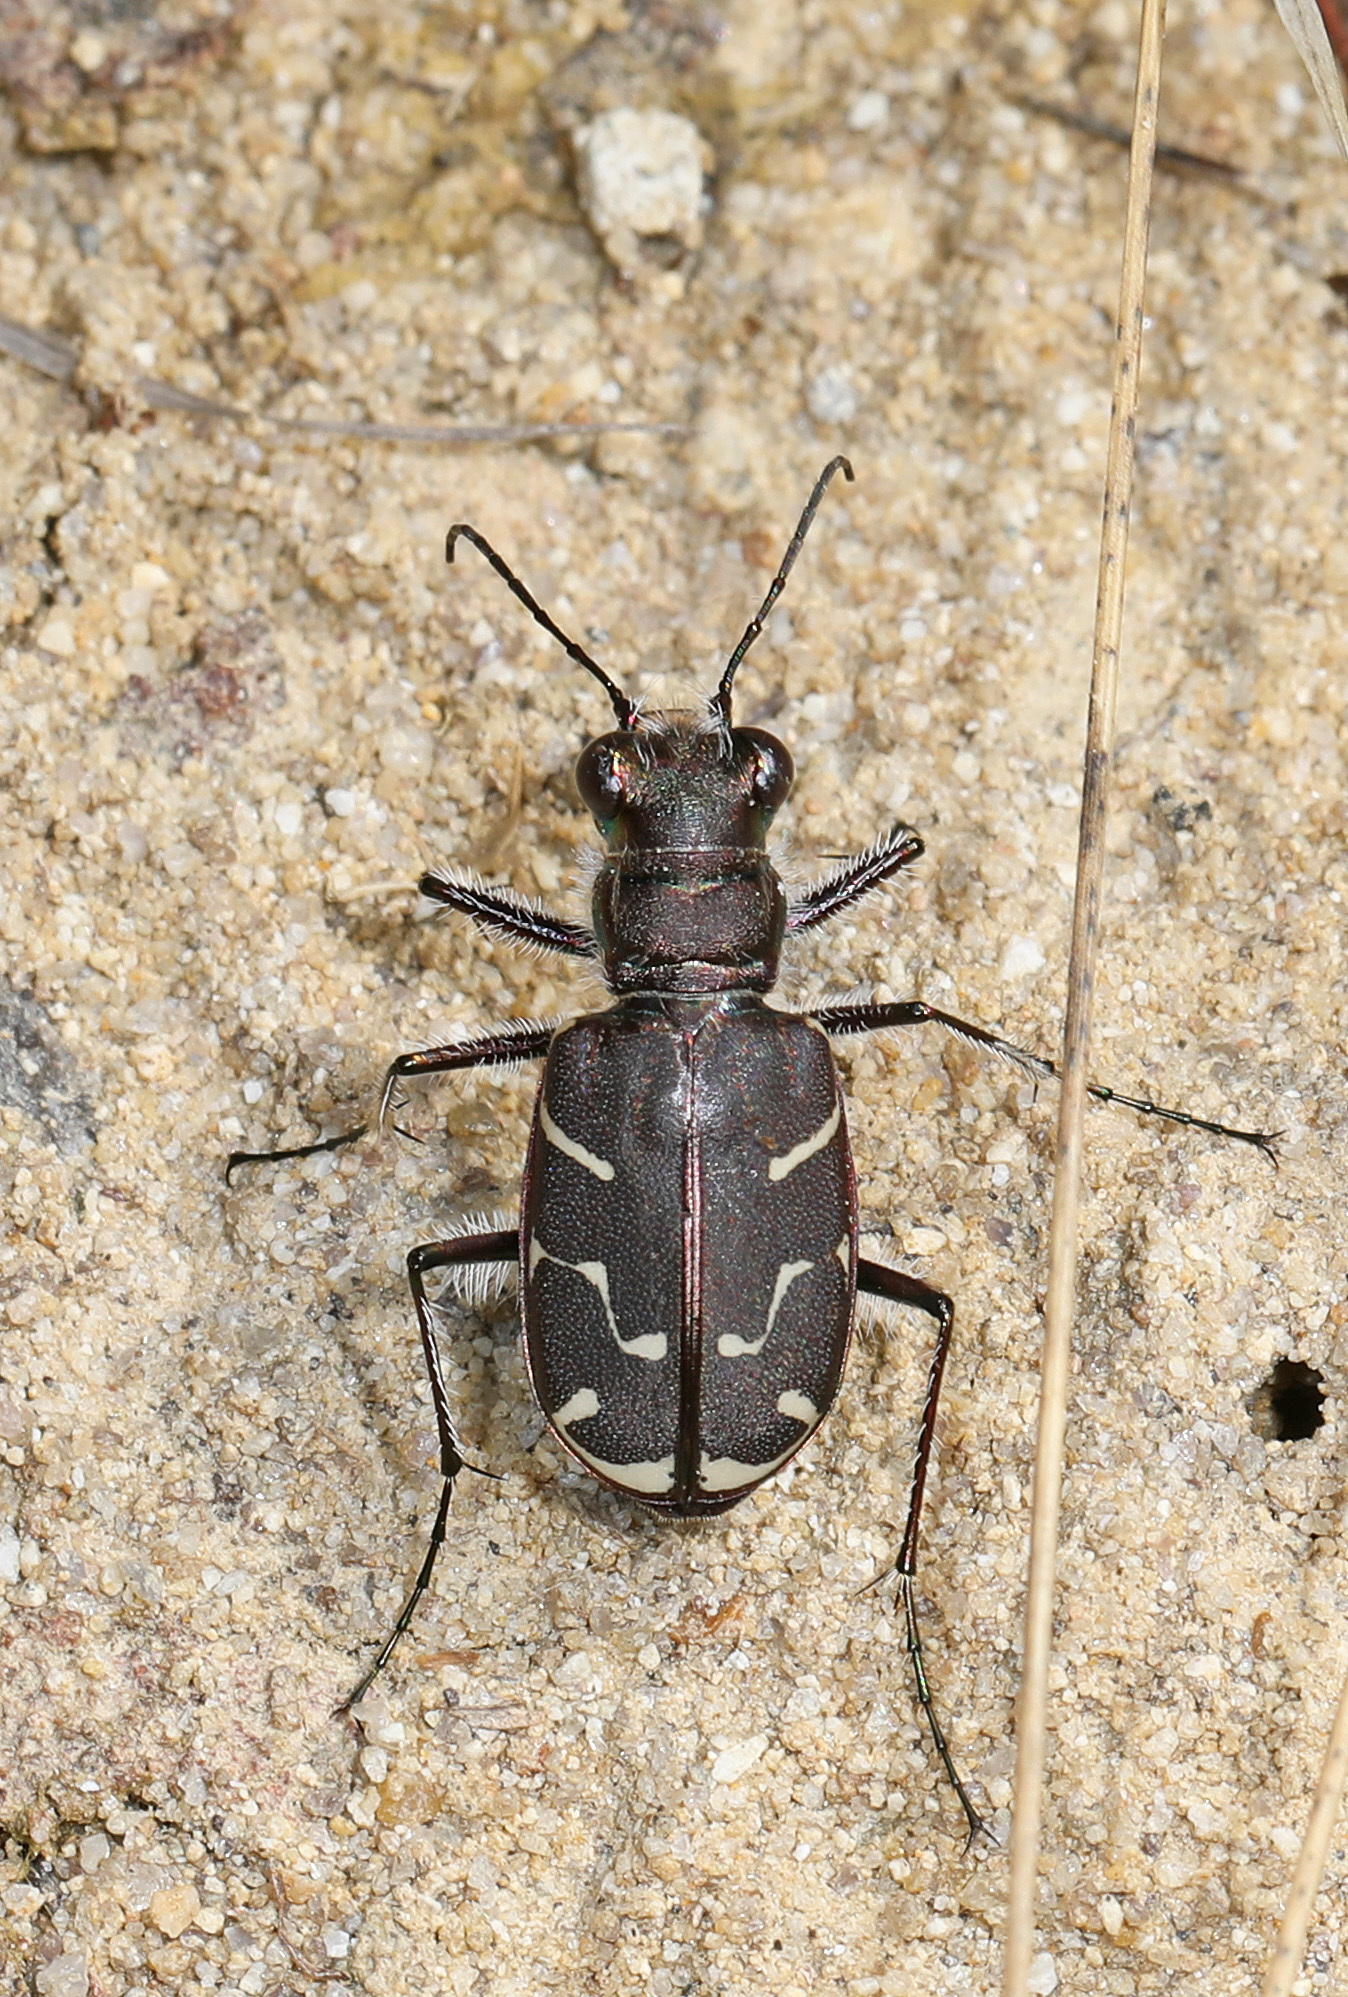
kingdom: Animalia
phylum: Arthropoda
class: Insecta
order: Coleoptera
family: Carabidae
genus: Cicindela
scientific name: Cicindela tranquebarica
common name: Oblique-lined tiger beetle
